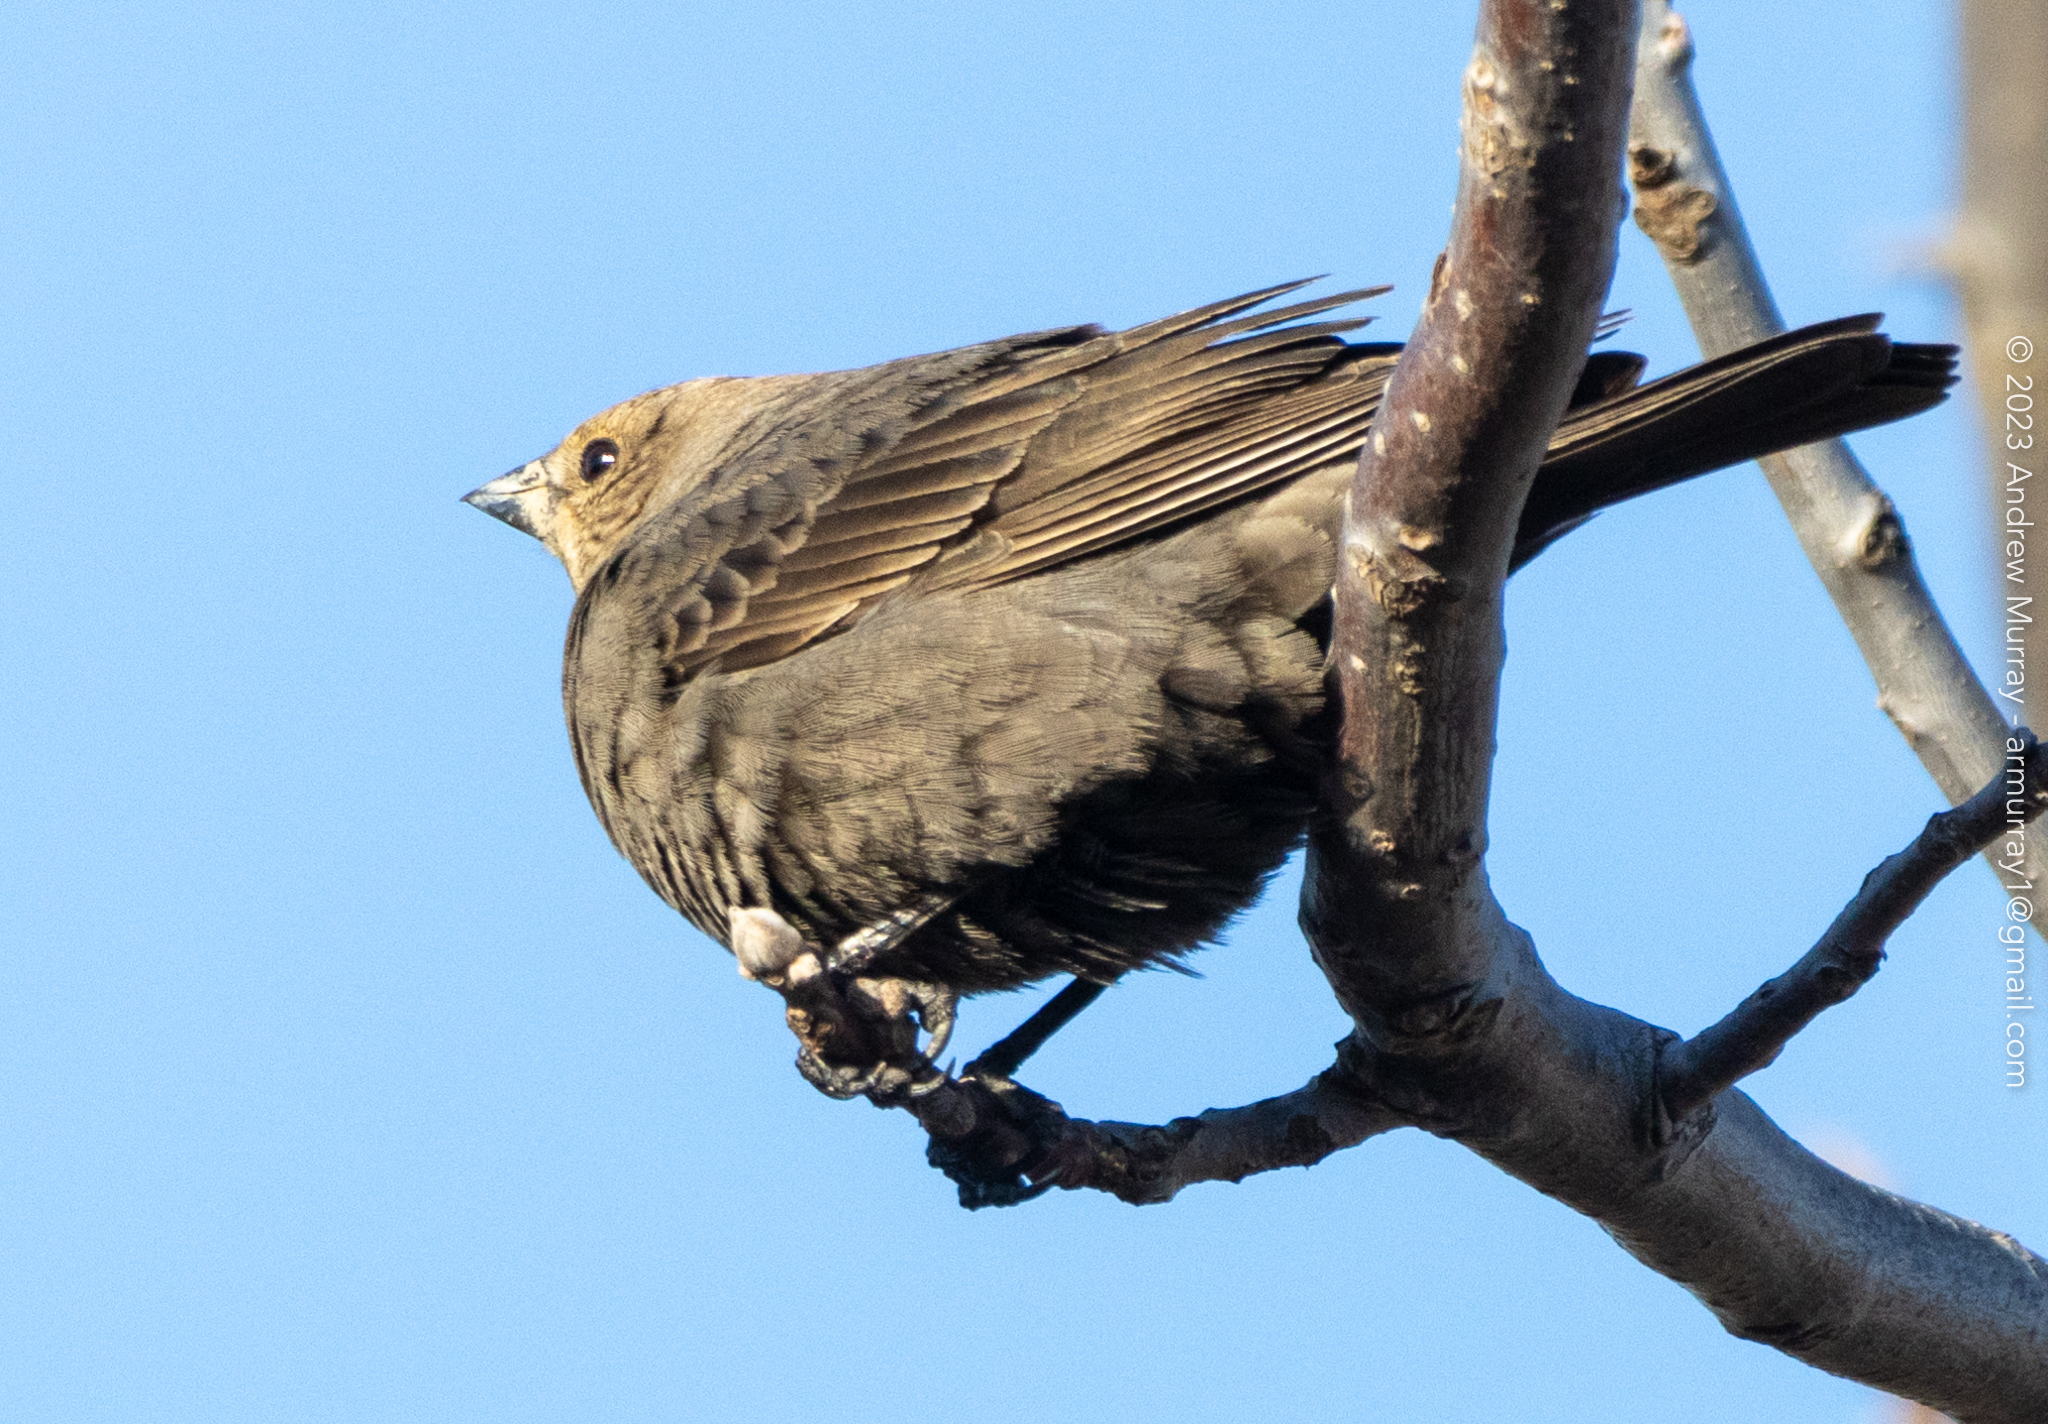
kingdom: Animalia
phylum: Chordata
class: Aves
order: Passeriformes
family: Icteridae
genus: Molothrus
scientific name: Molothrus ater
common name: Brown-headed cowbird
